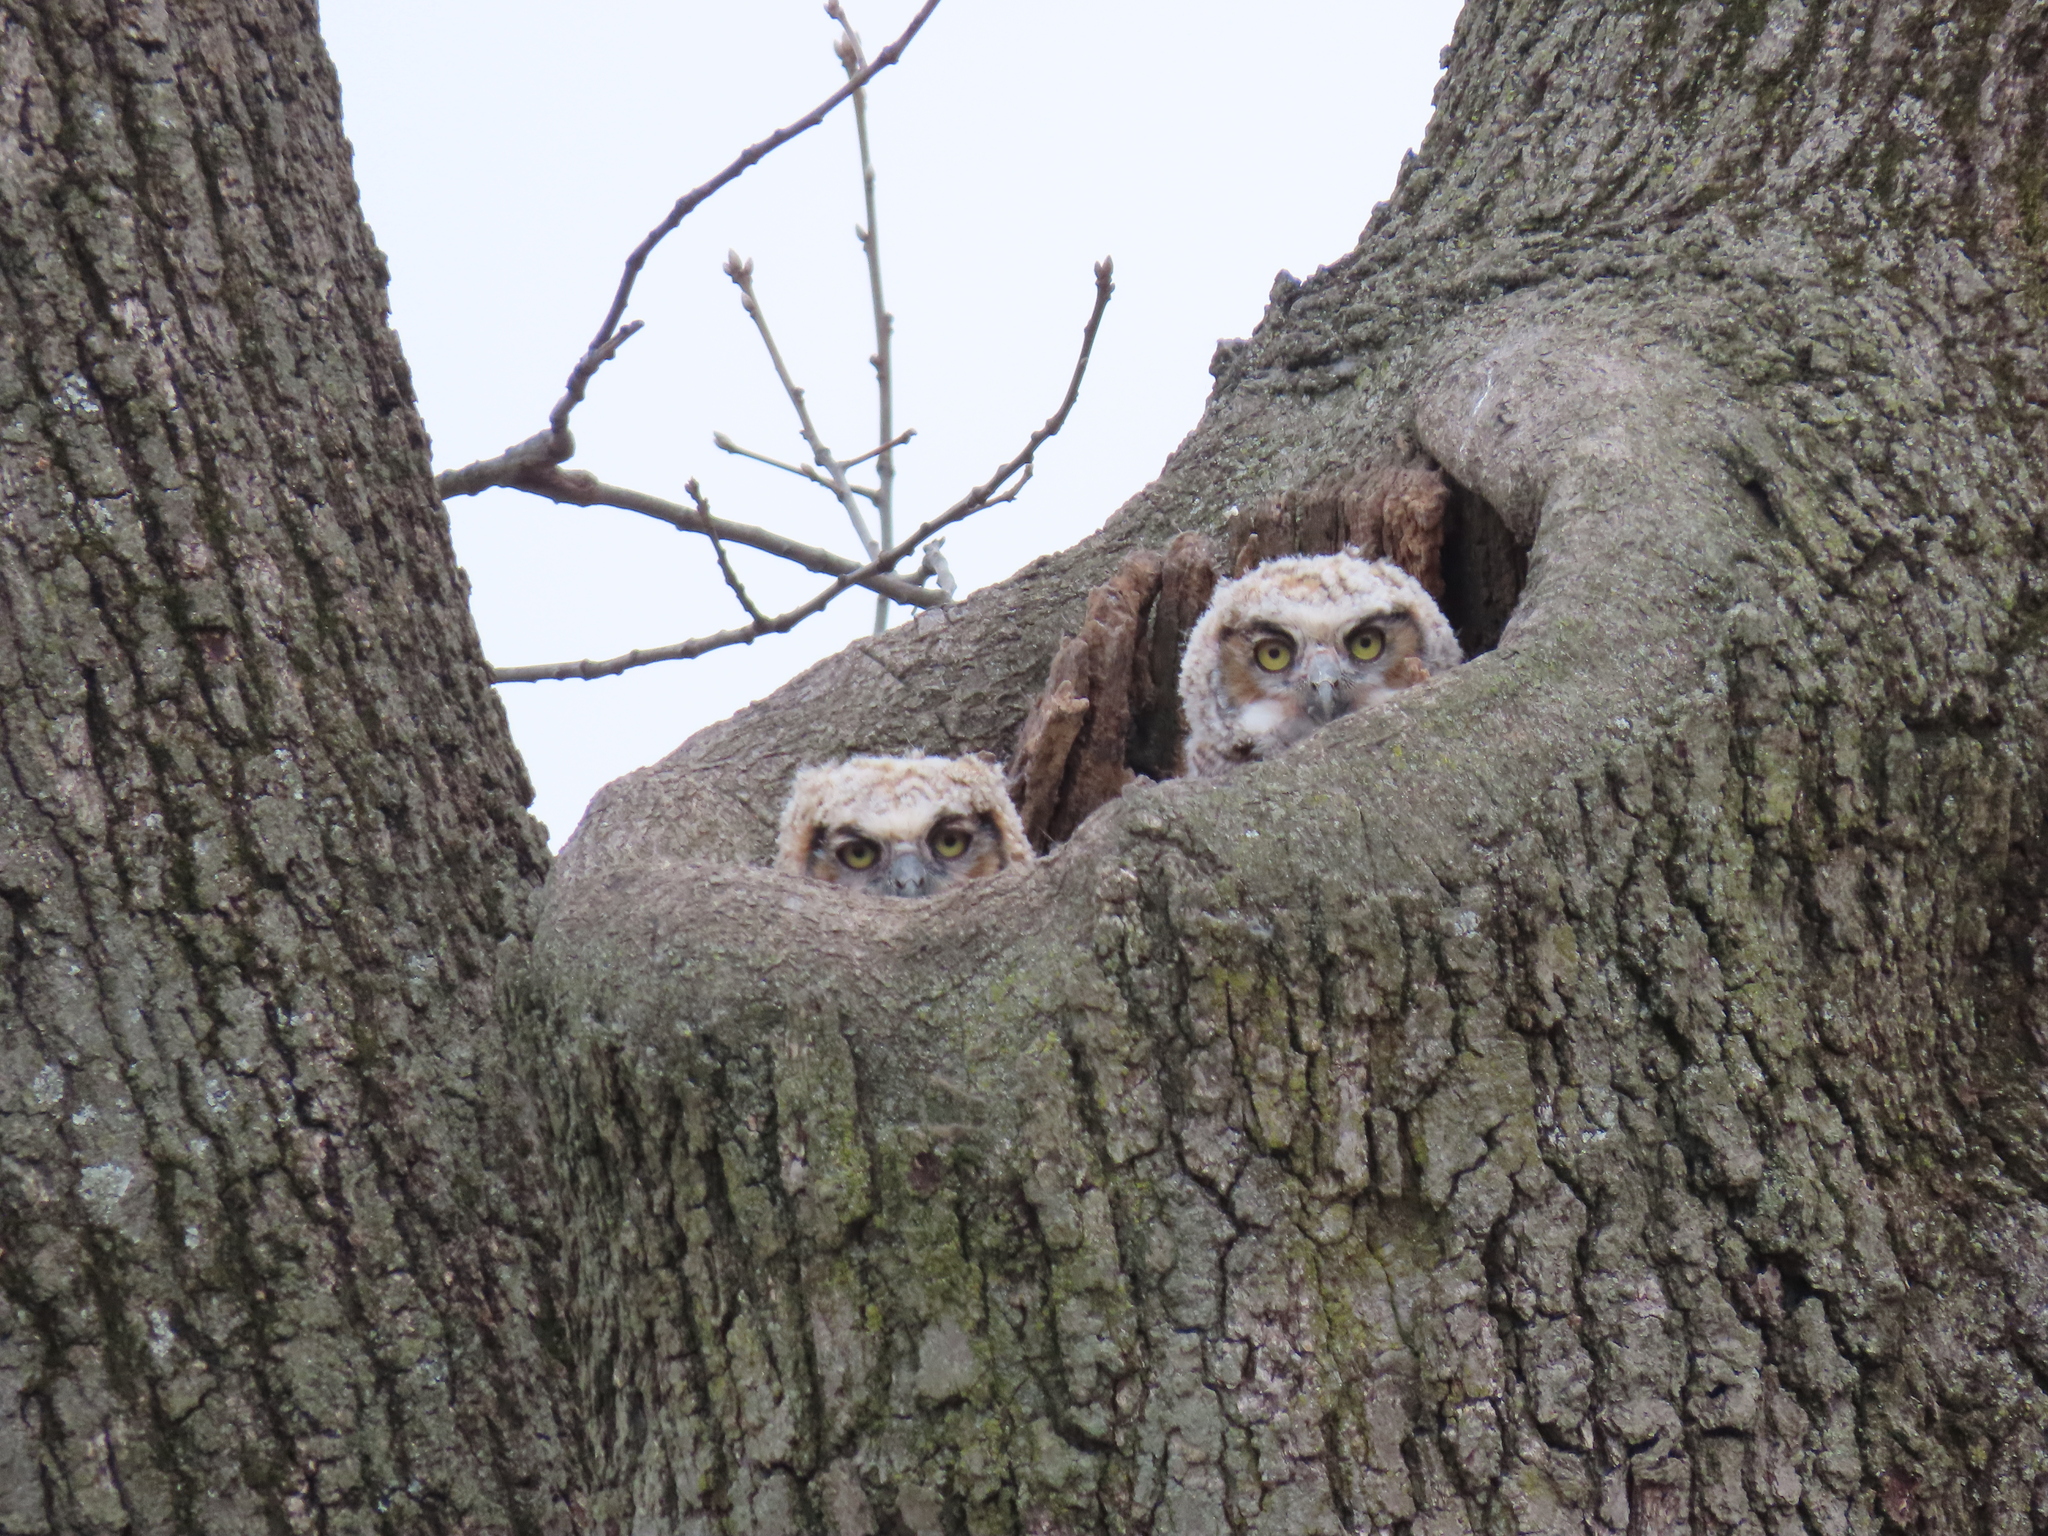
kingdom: Animalia
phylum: Chordata
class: Aves
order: Strigiformes
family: Strigidae
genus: Bubo
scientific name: Bubo virginianus
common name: Great horned owl
